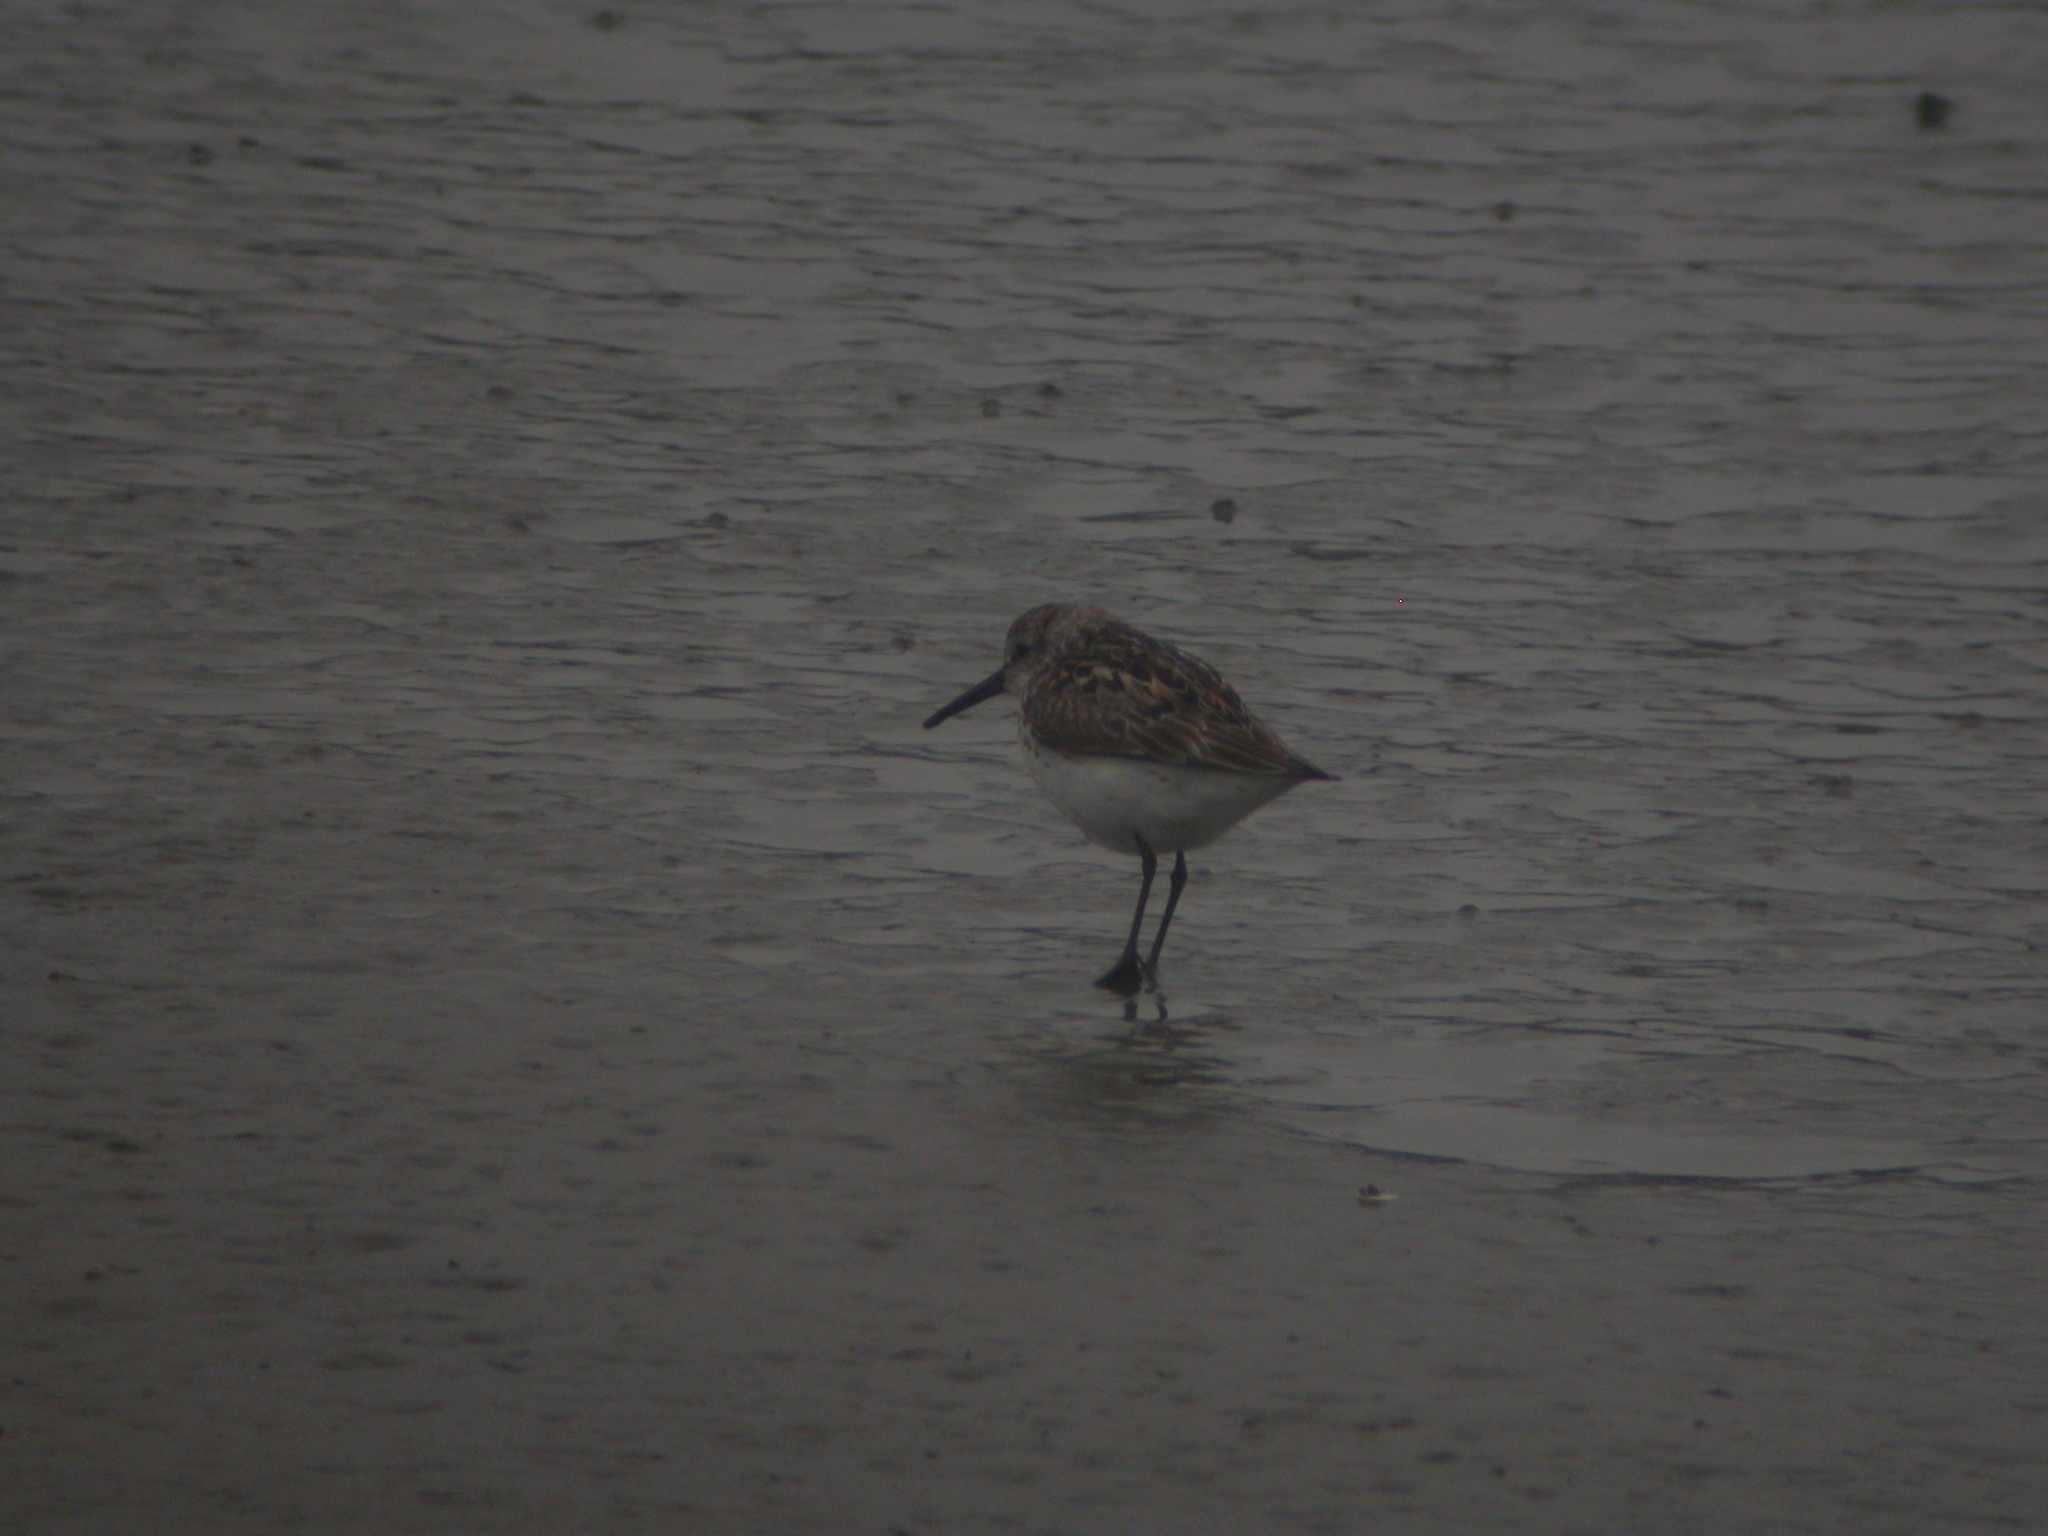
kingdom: Animalia
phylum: Chordata
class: Aves
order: Charadriiformes
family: Scolopacidae
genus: Calidris
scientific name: Calidris mauri
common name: Western sandpiper
